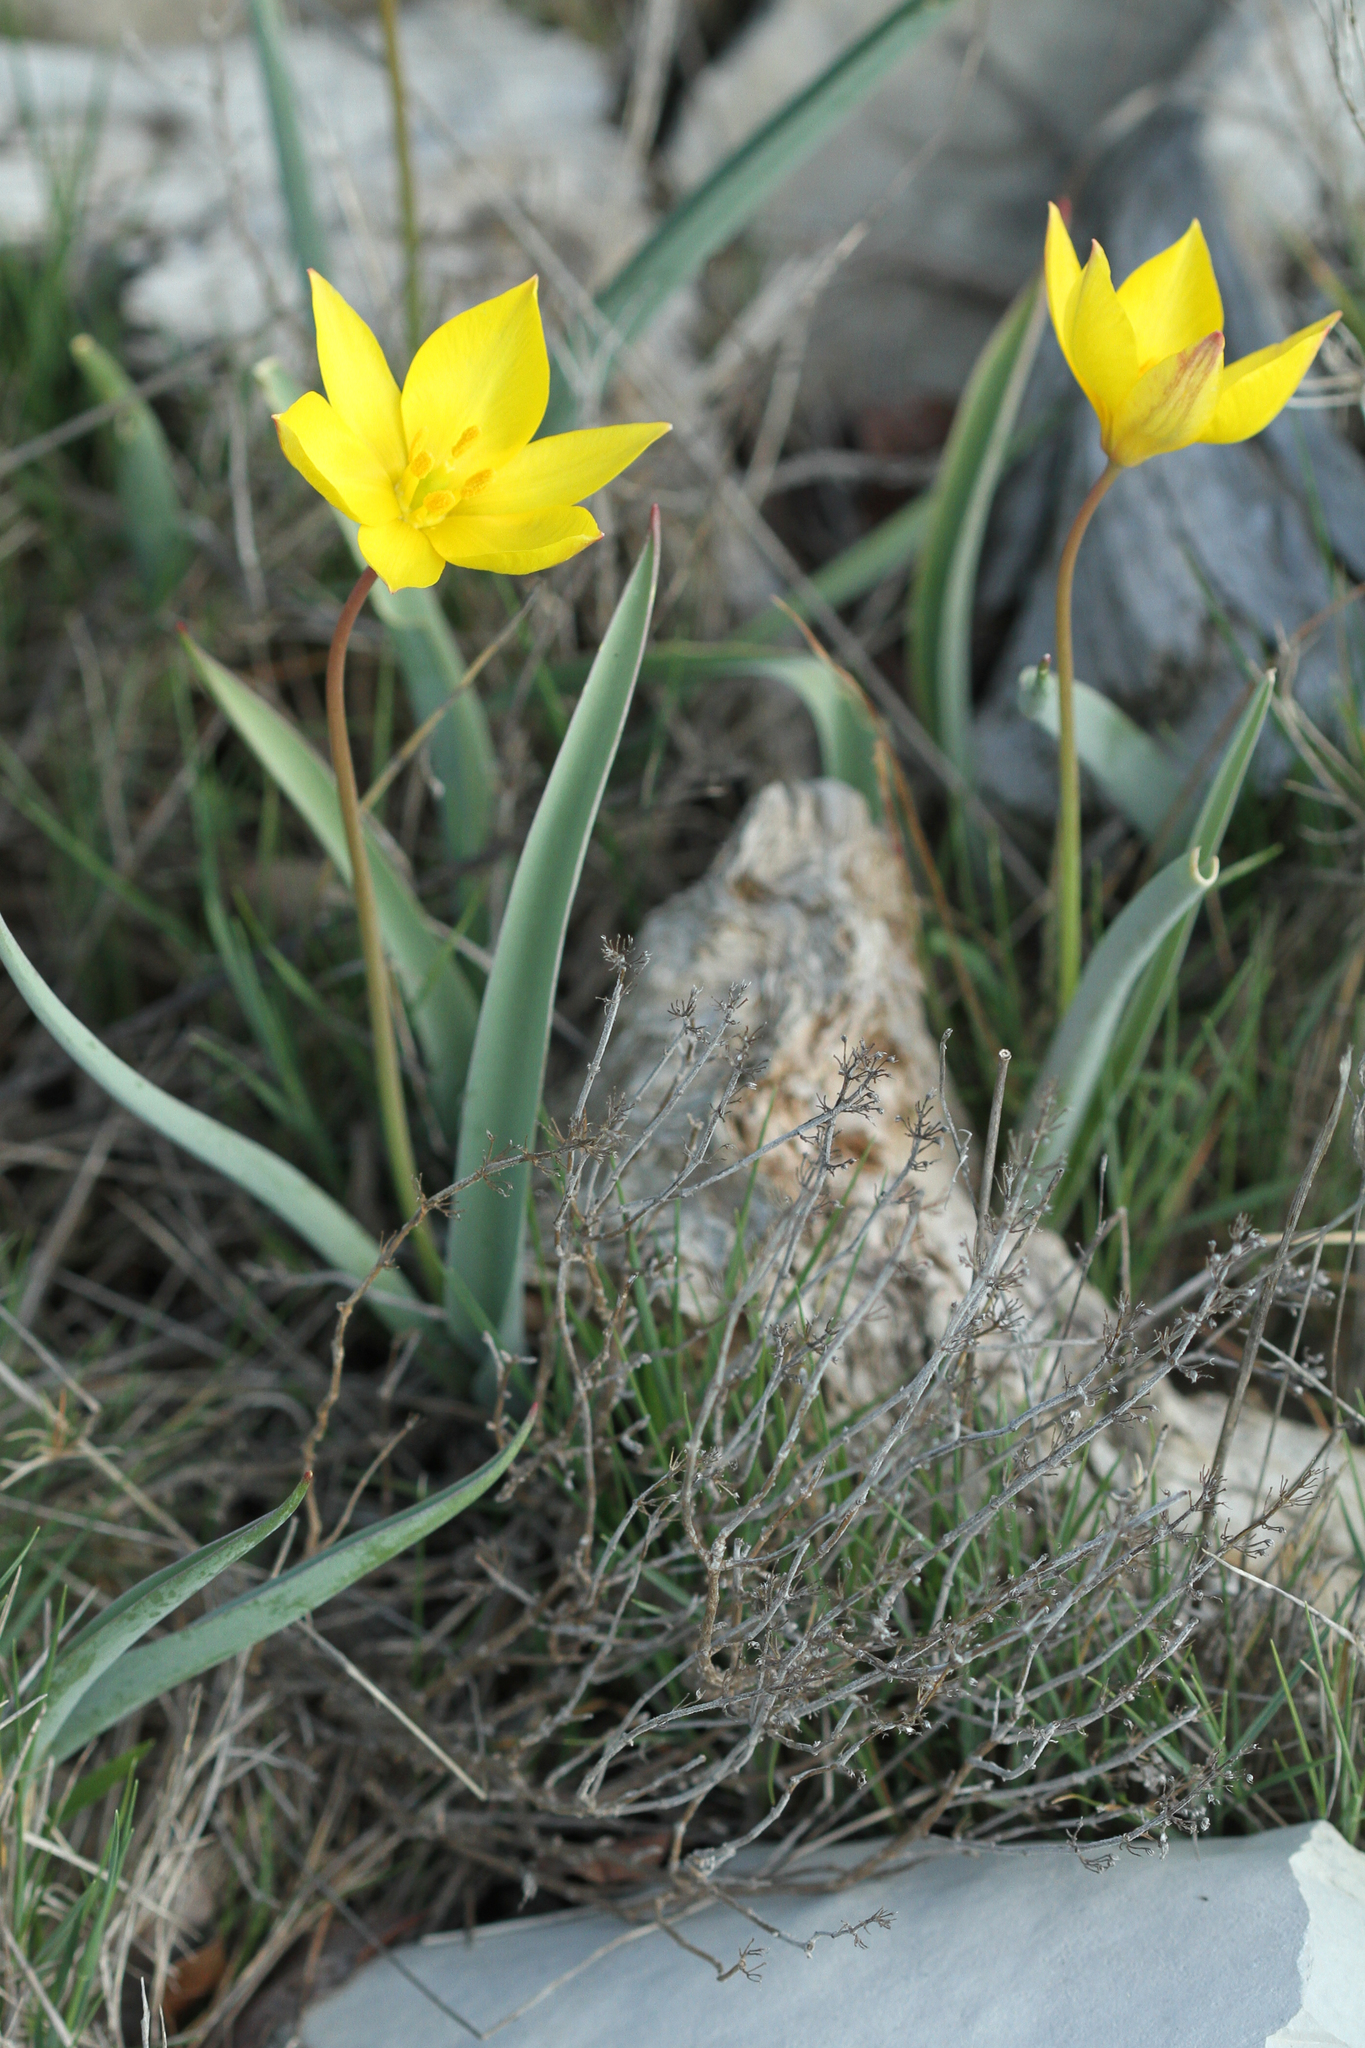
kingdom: Plantae
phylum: Tracheophyta
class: Liliopsida
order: Liliales
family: Liliaceae
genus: Tulipa
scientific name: Tulipa sylvestris
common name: Wild tulip
